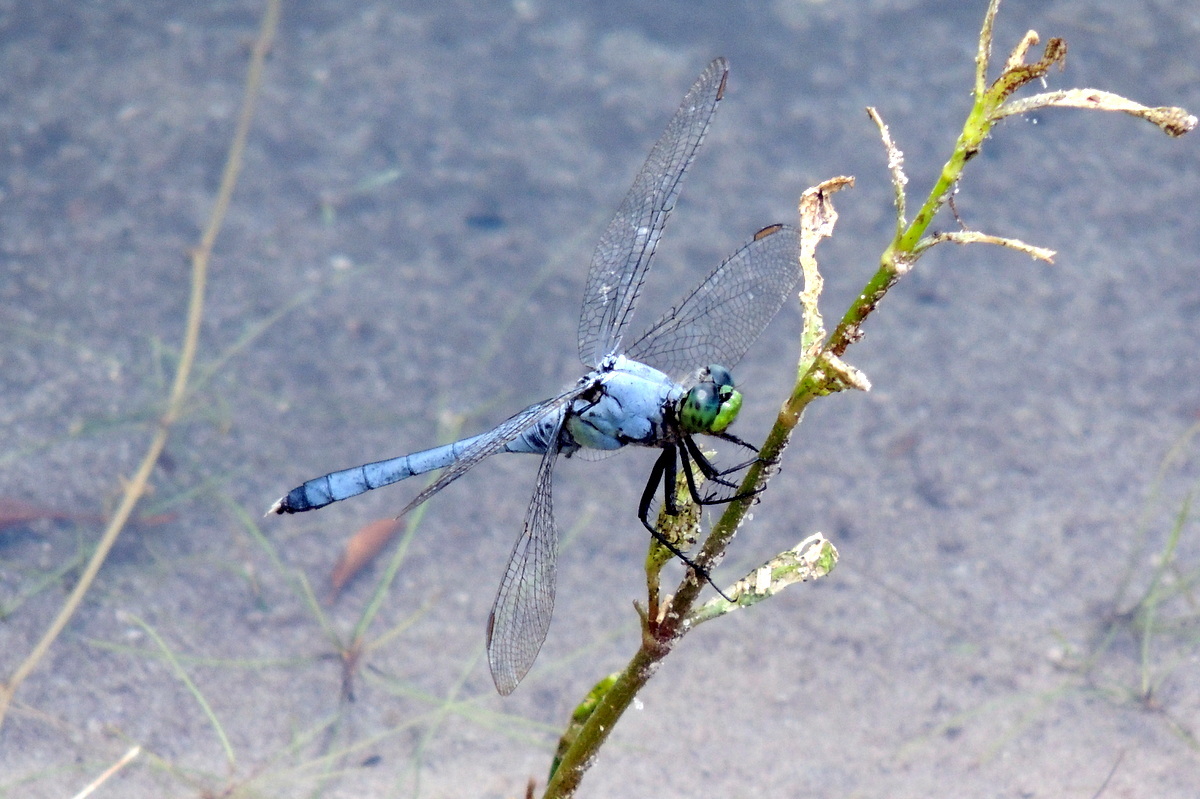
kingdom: Animalia
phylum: Arthropoda
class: Insecta
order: Odonata
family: Libellulidae
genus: Erythemis
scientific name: Erythemis simplicicollis
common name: Eastern pondhawk
